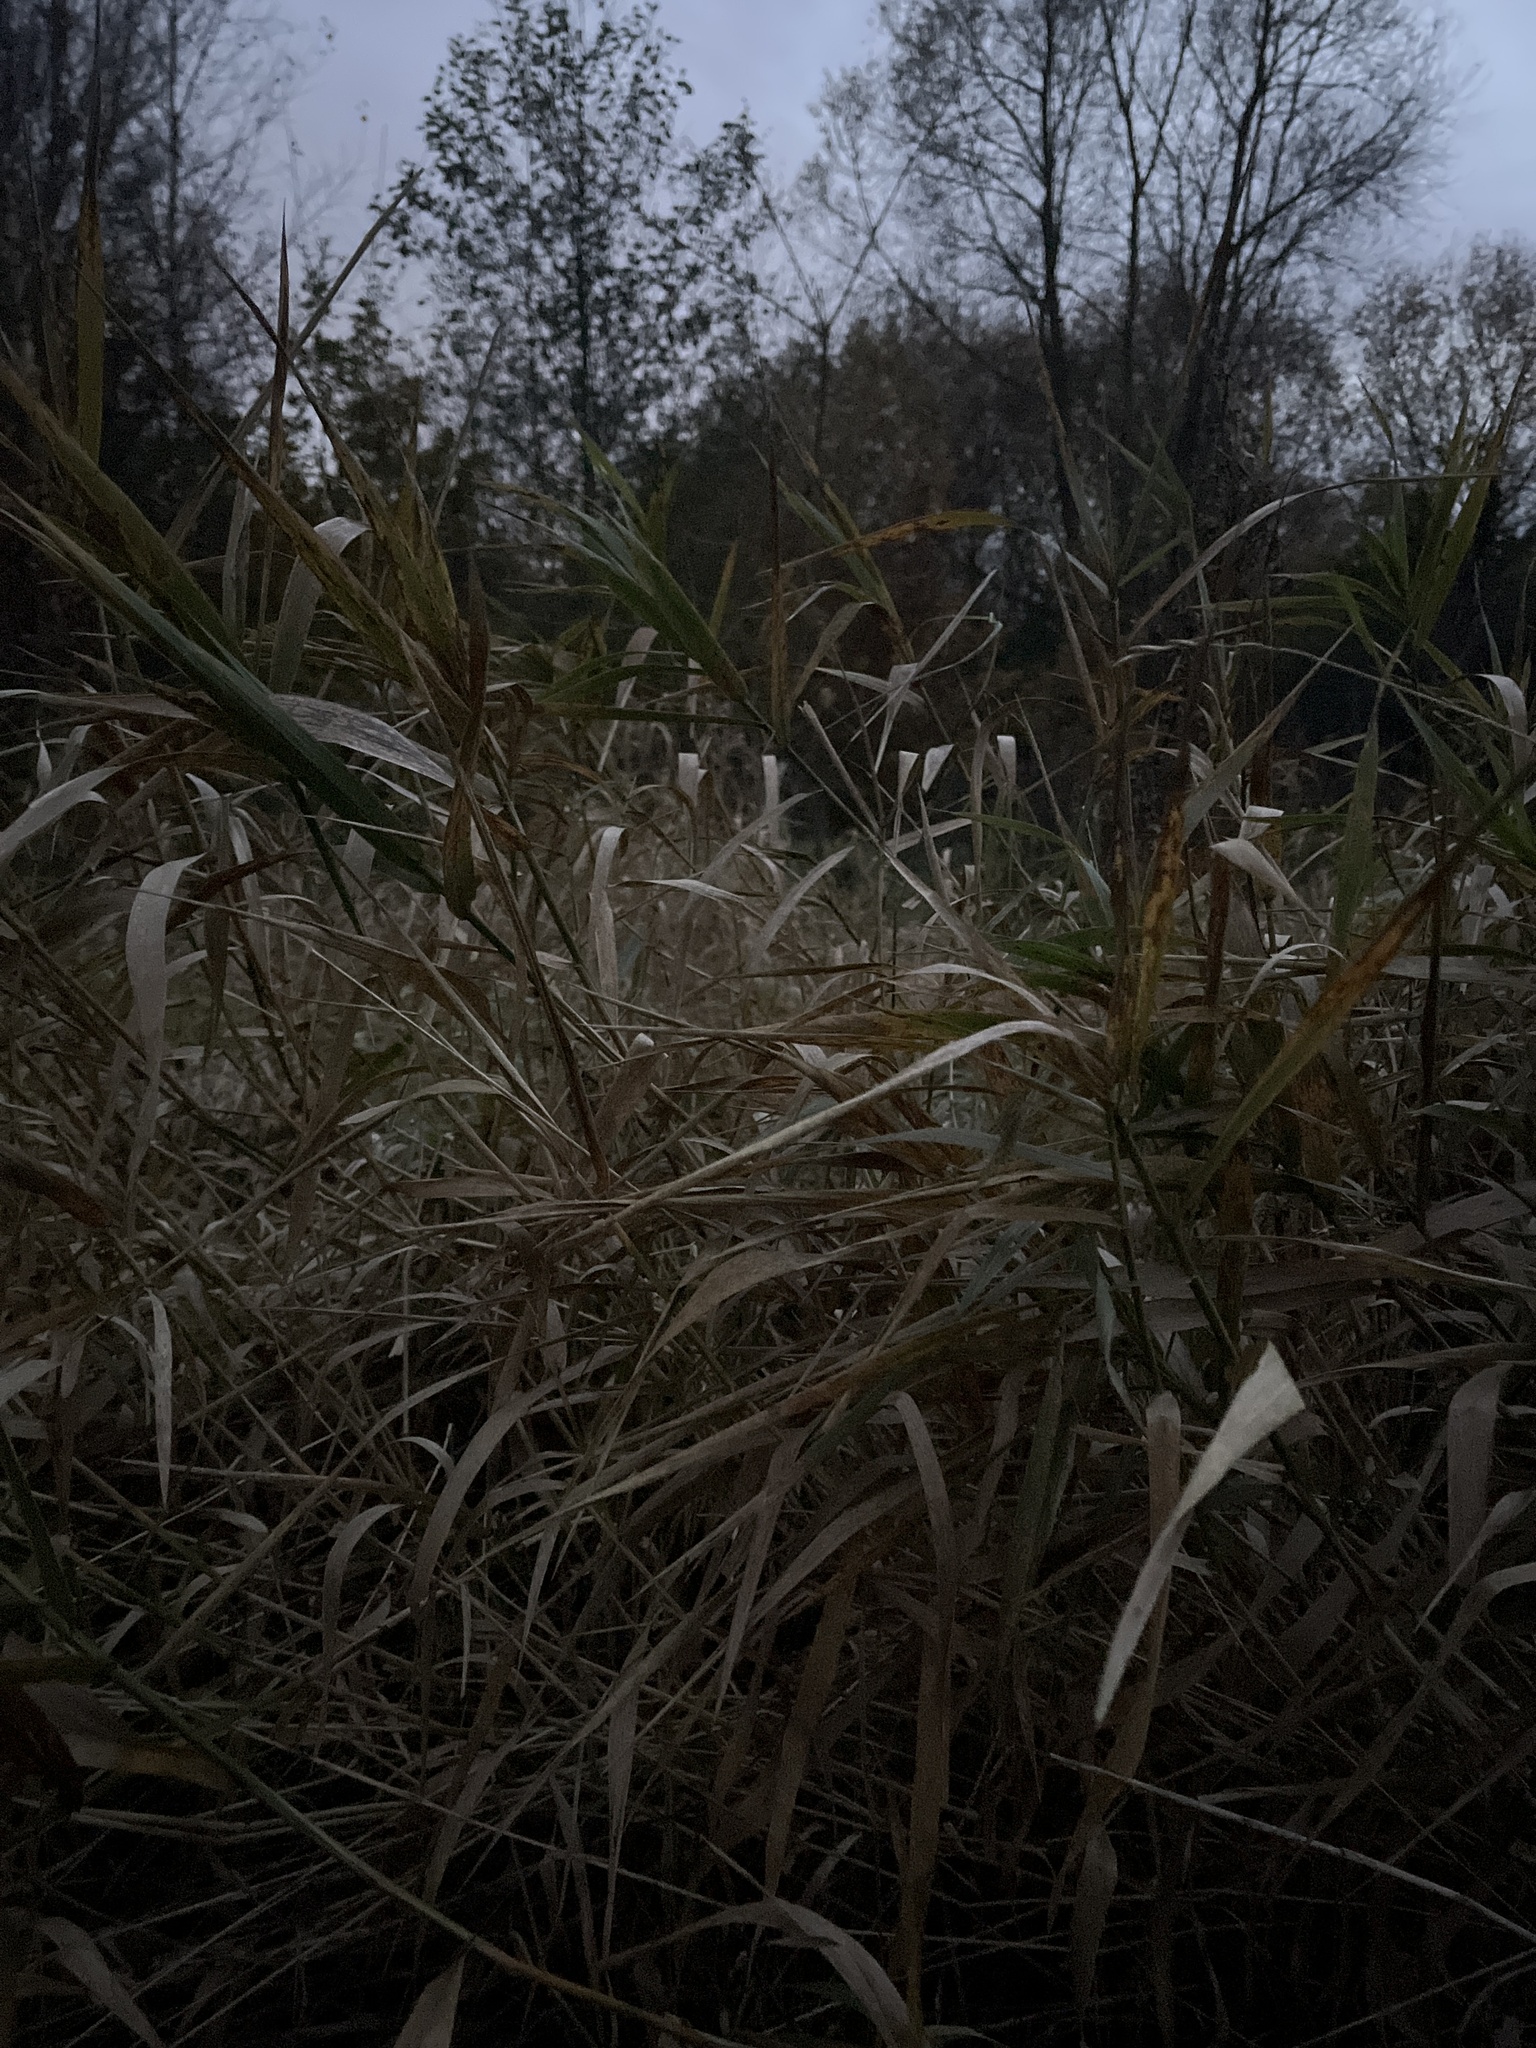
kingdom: Plantae
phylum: Tracheophyta
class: Liliopsida
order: Poales
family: Poaceae
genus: Phalaris
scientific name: Phalaris arundinacea
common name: Reed canary-grass
